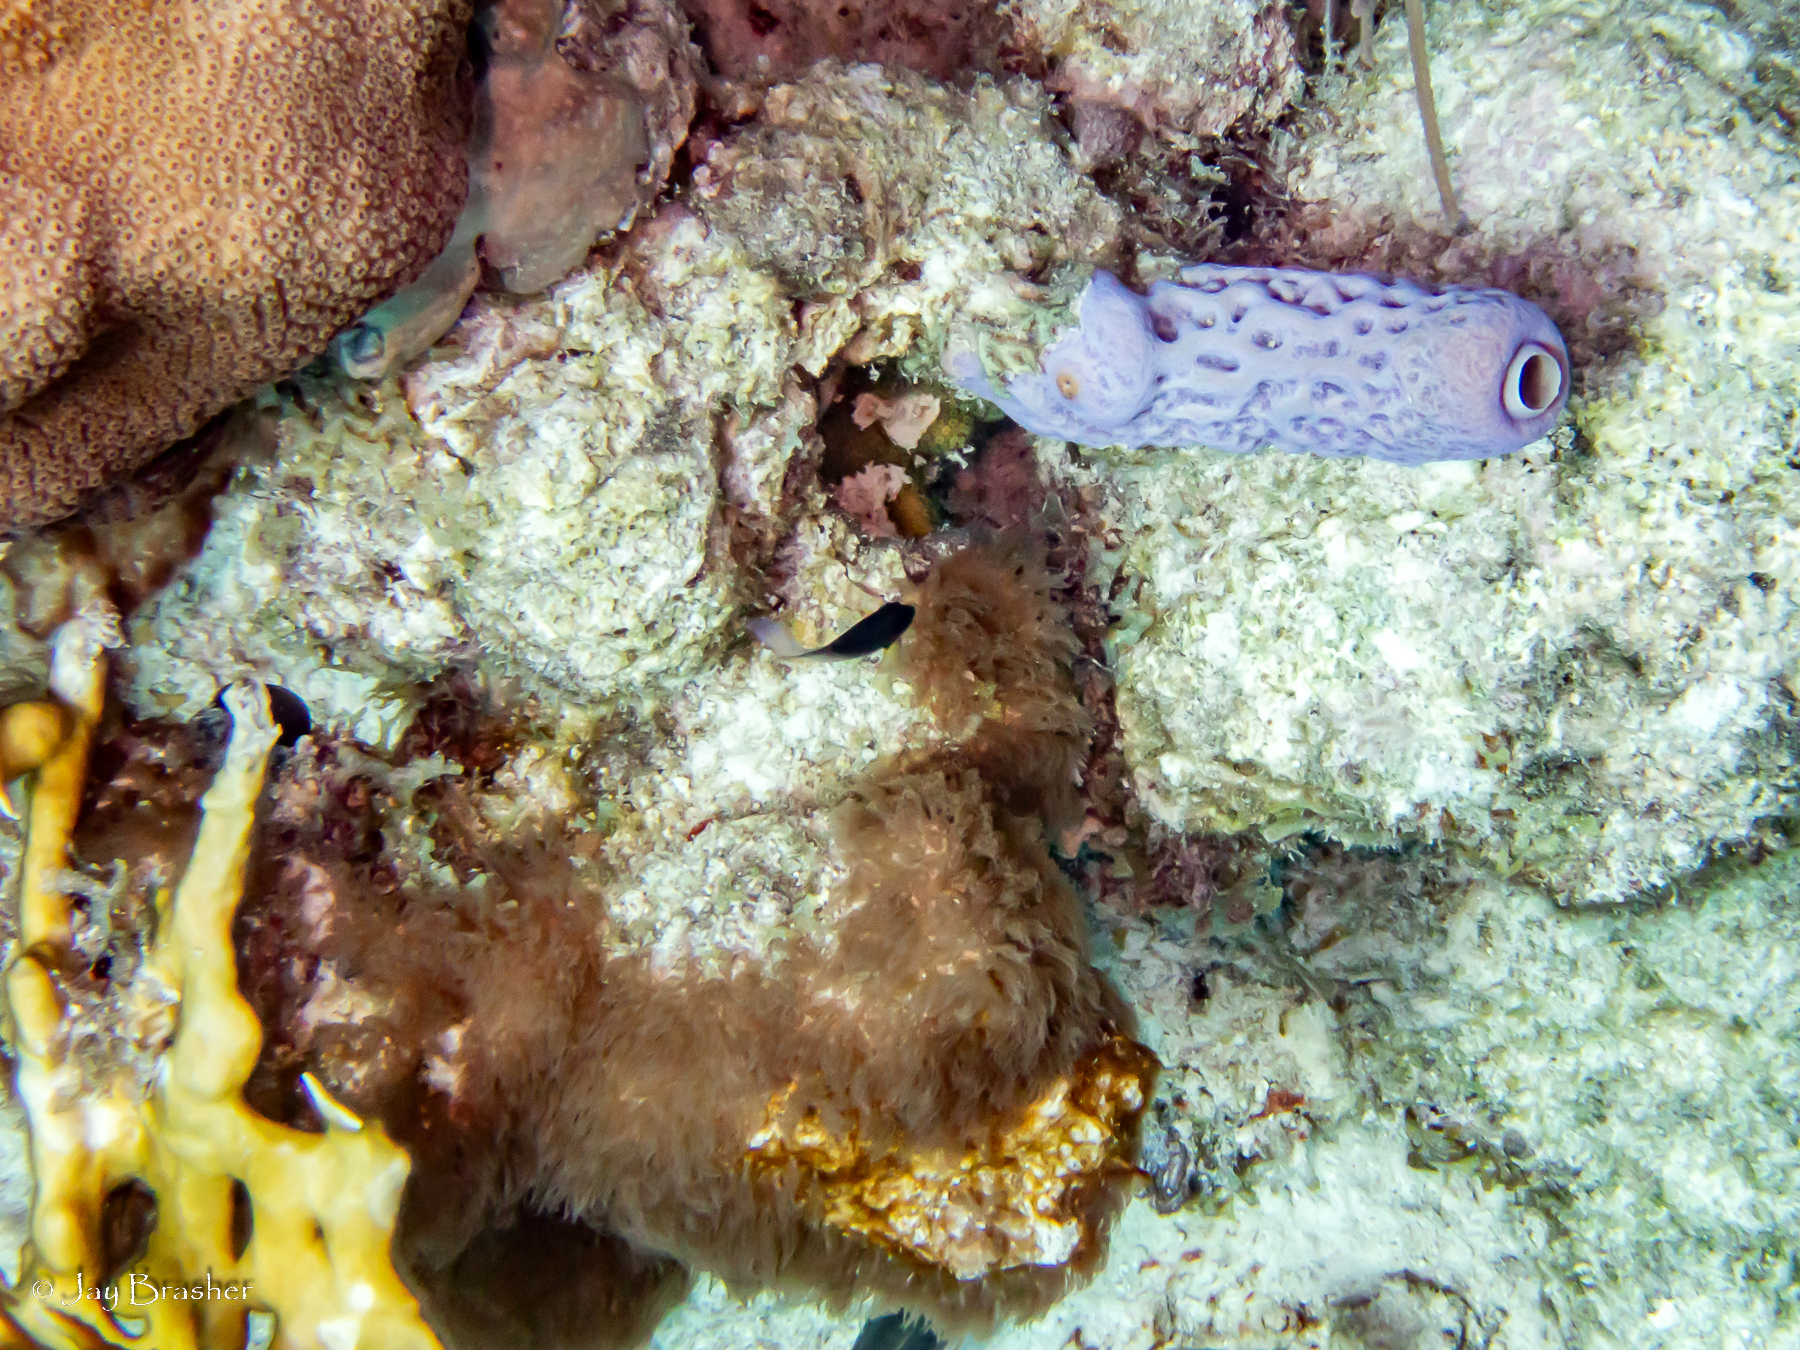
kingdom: Animalia
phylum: Cnidaria
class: Anthozoa
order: Scleralcyonacea
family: Erythropodiidae
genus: Erythropodium
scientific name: Erythropodium caribaeorum
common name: Encrusting gorgonian
